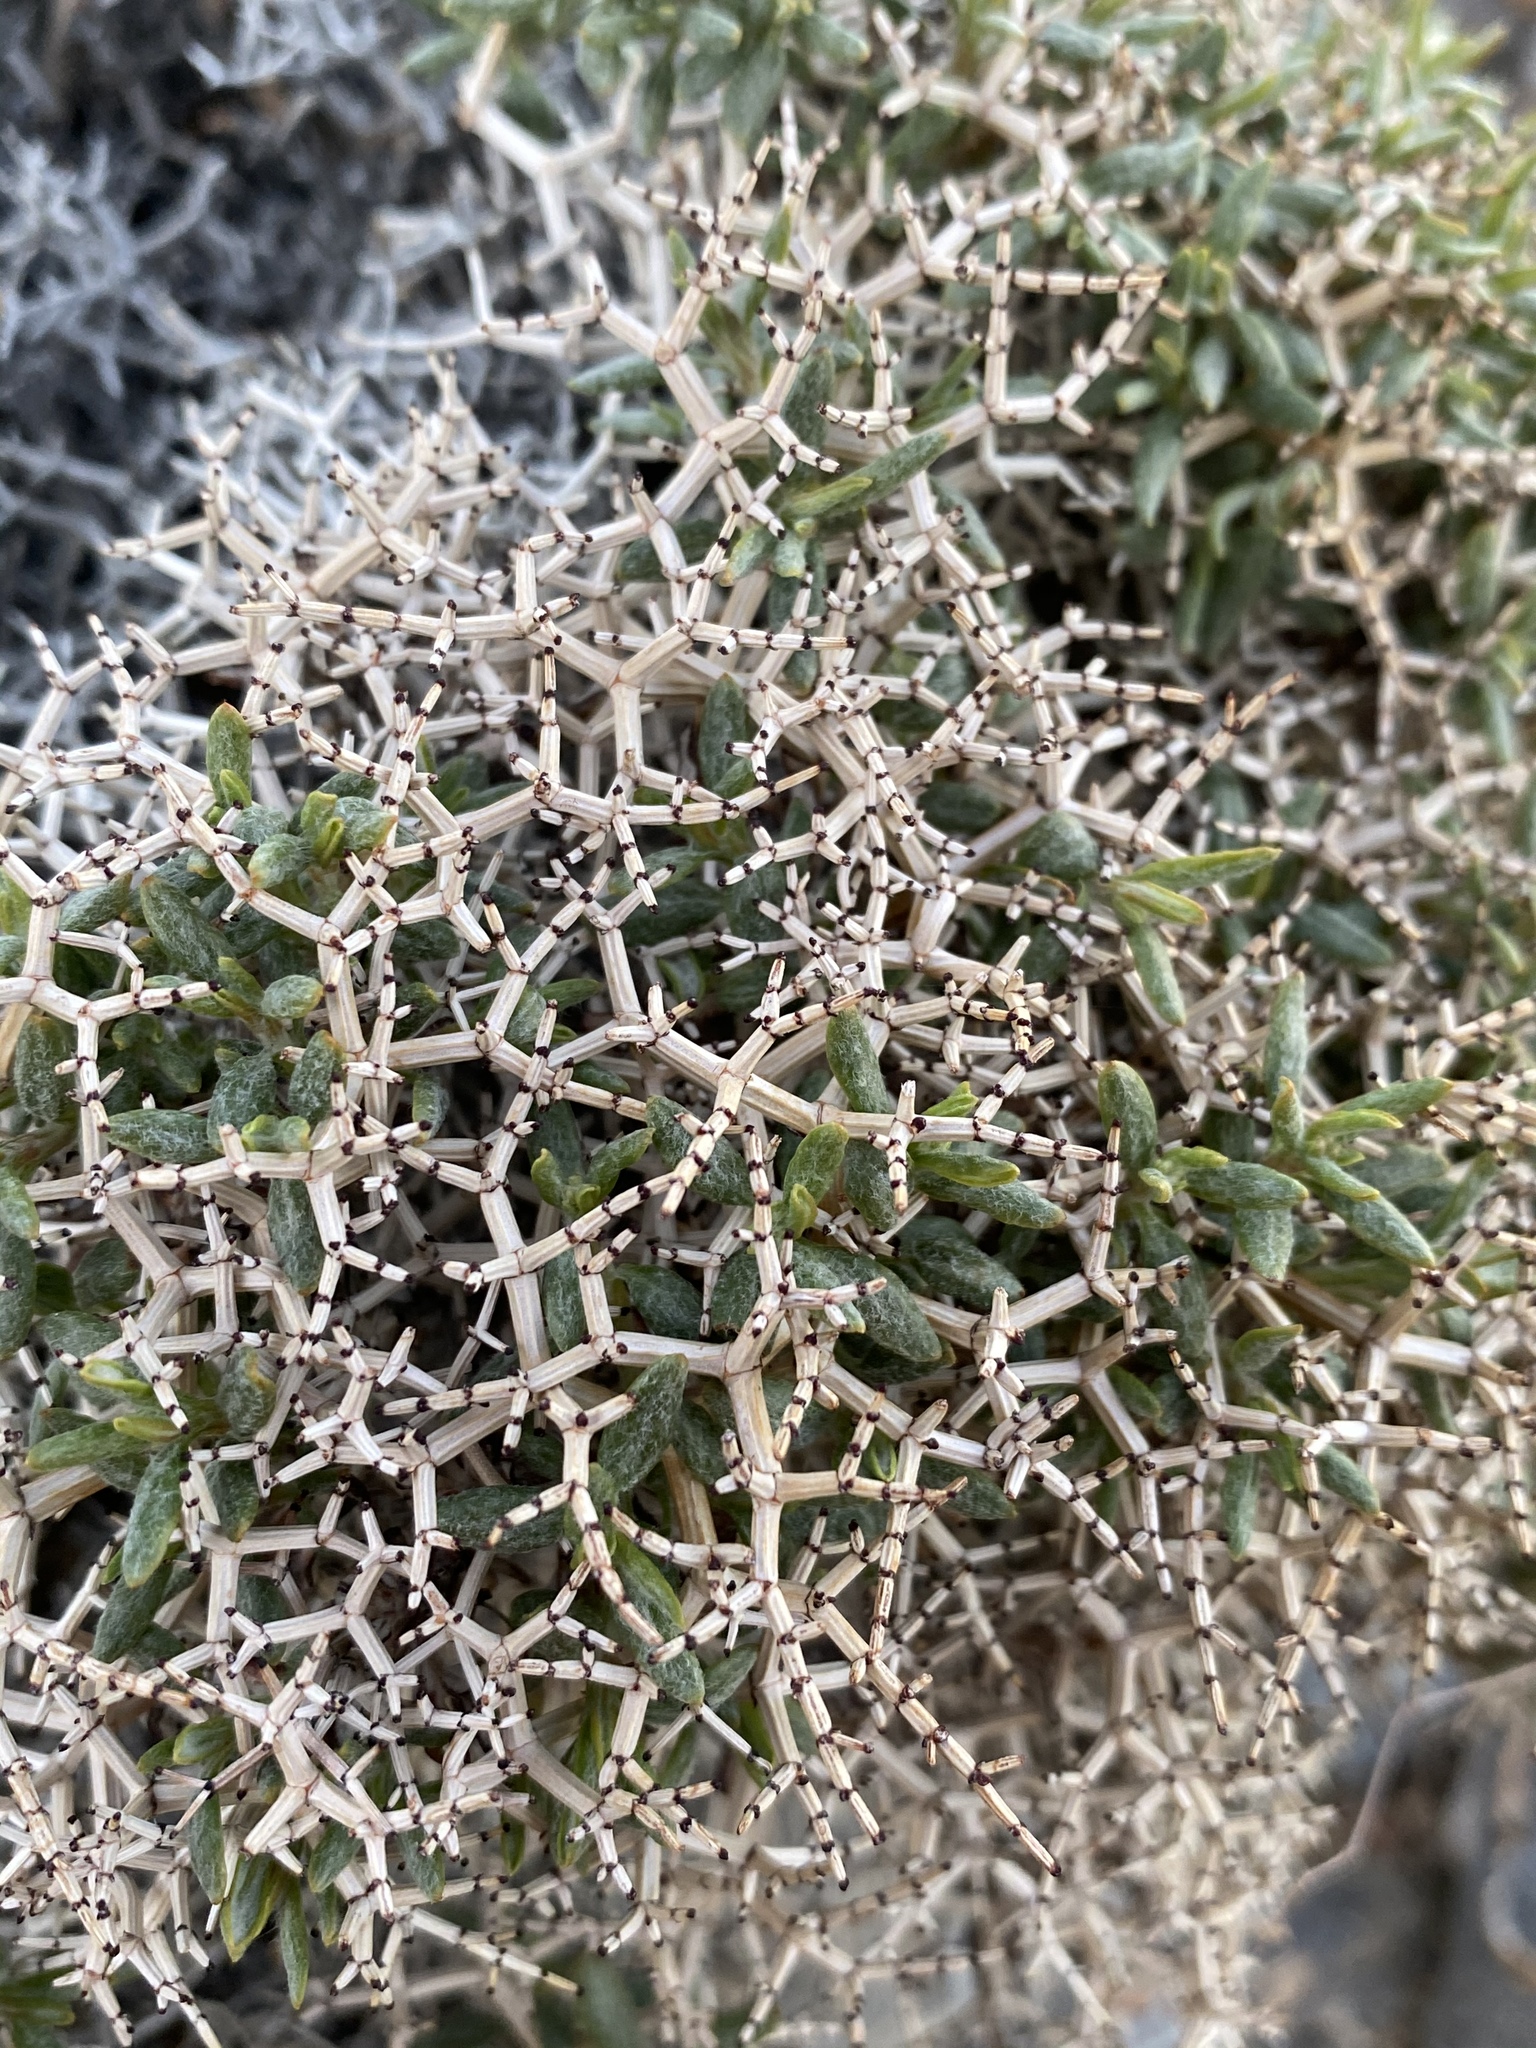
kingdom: Plantae
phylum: Tracheophyta
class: Magnoliopsida
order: Caryophyllales
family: Polygonaceae
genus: Eriogonum
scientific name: Eriogonum heermannii
